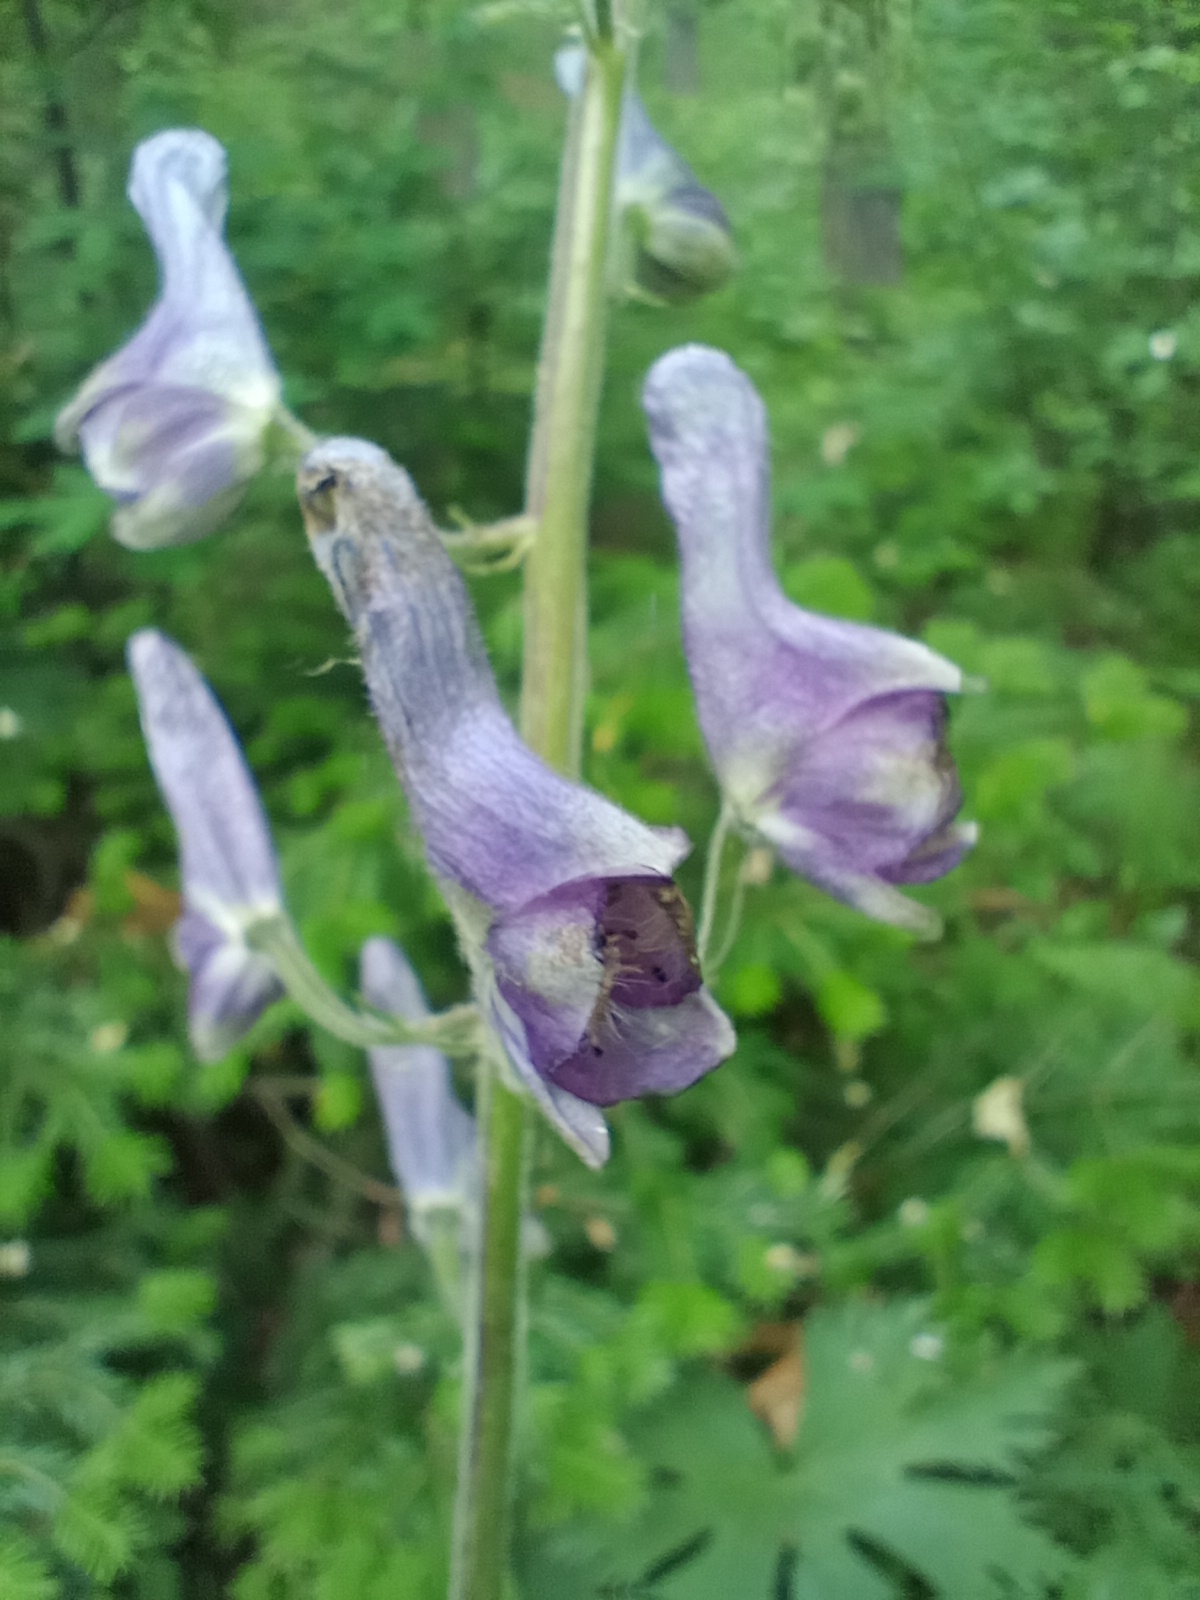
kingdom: Plantae
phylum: Tracheophyta
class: Magnoliopsida
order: Ranunculales
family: Ranunculaceae
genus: Aconitum
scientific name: Aconitum septentrionale
